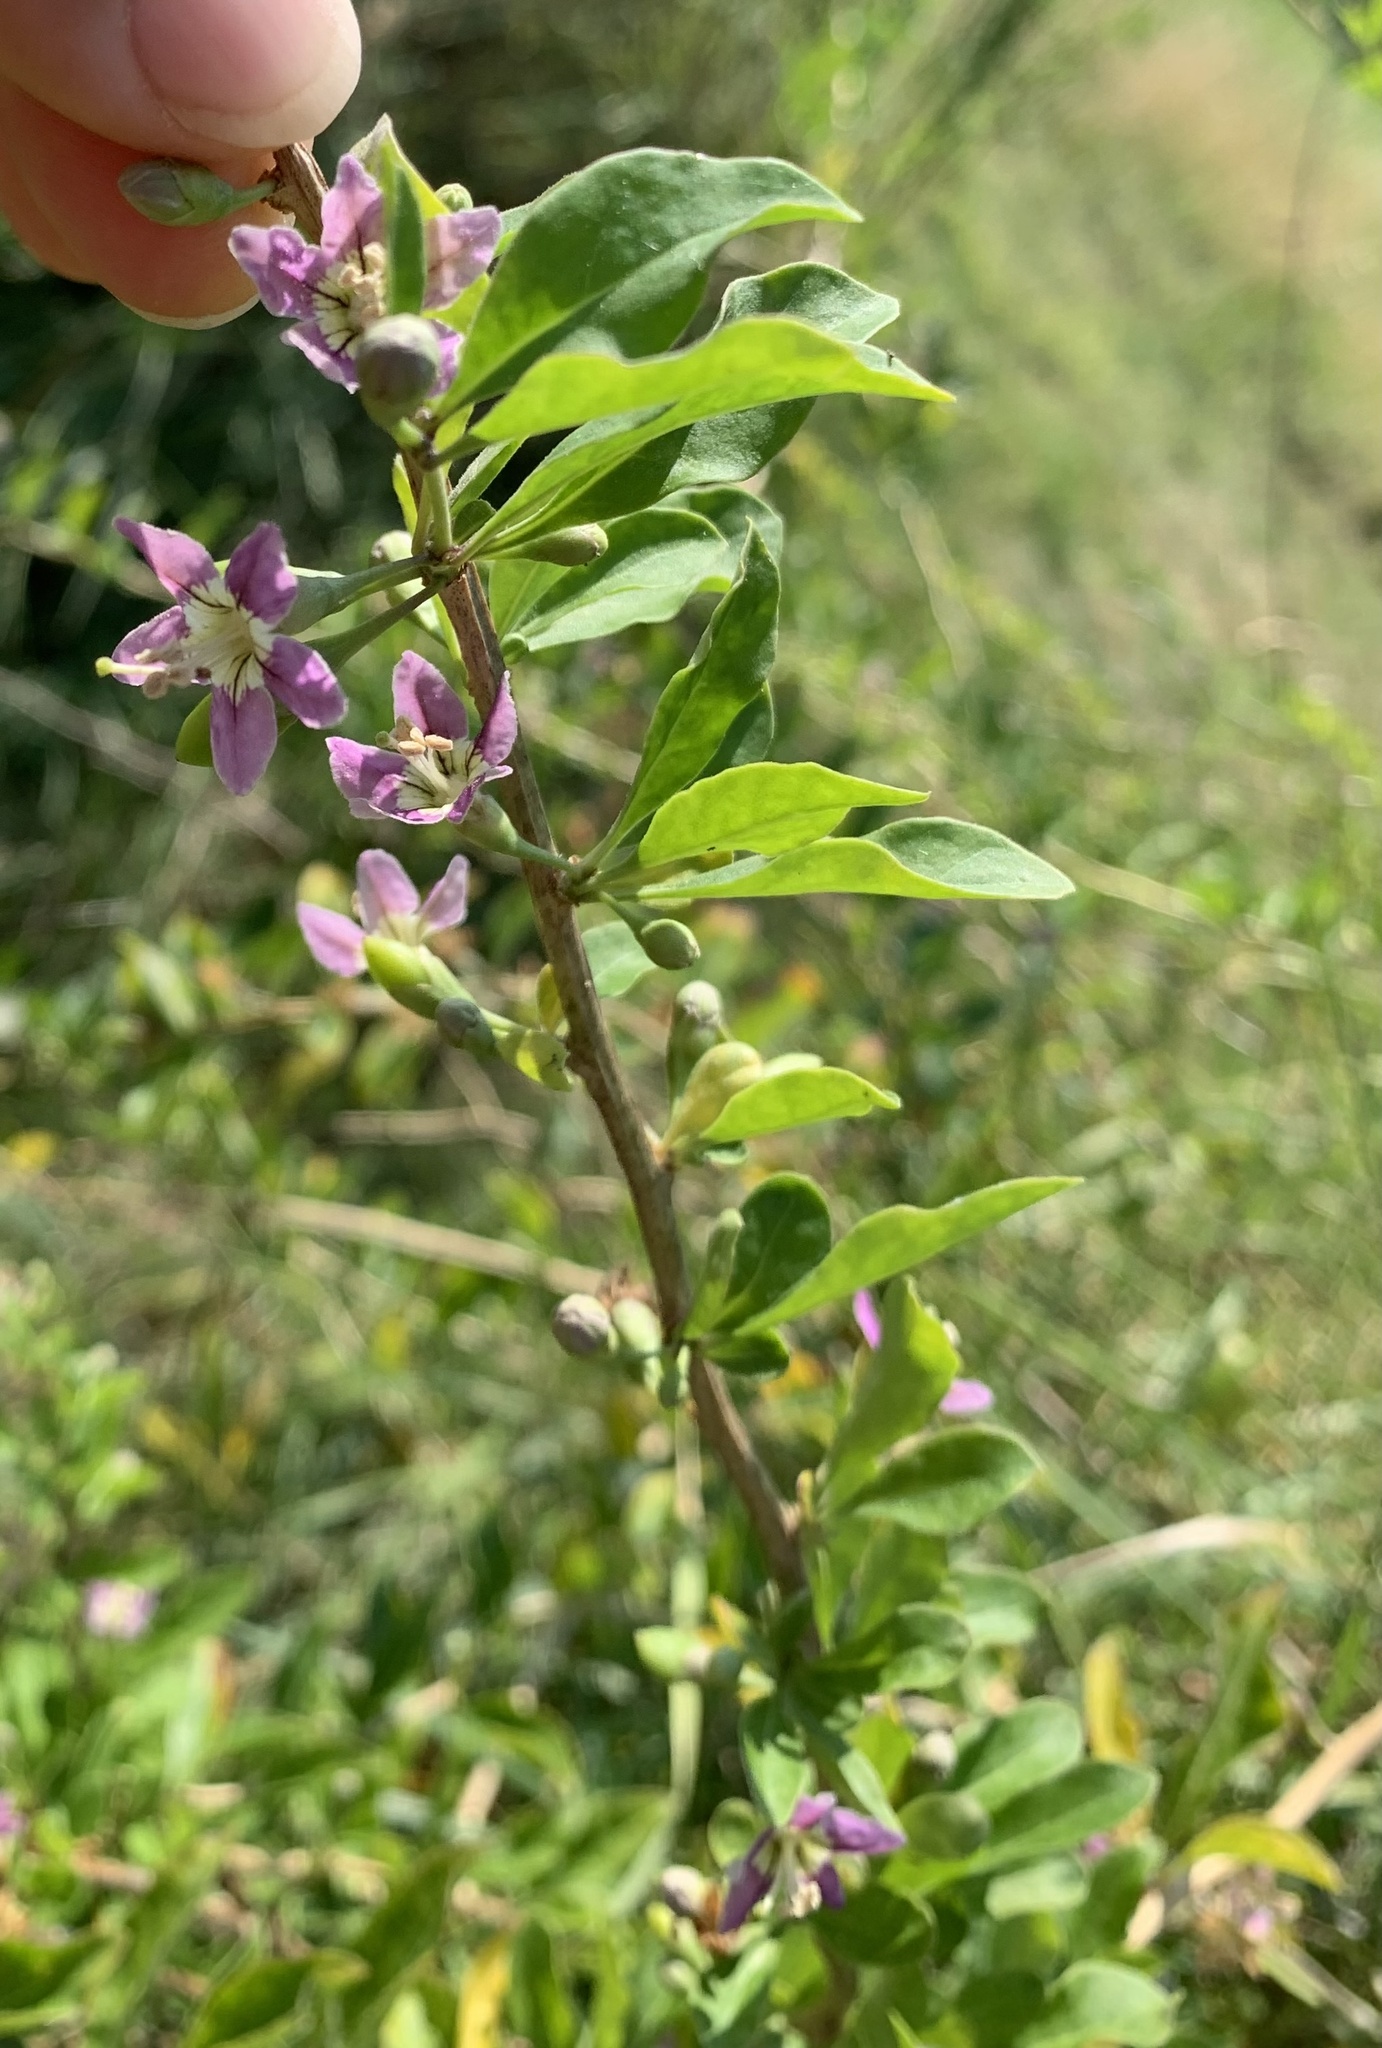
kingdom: Plantae
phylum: Tracheophyta
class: Magnoliopsida
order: Solanales
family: Solanaceae
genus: Lycium
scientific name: Lycium barbarum
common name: Duke of argyll's teaplant
